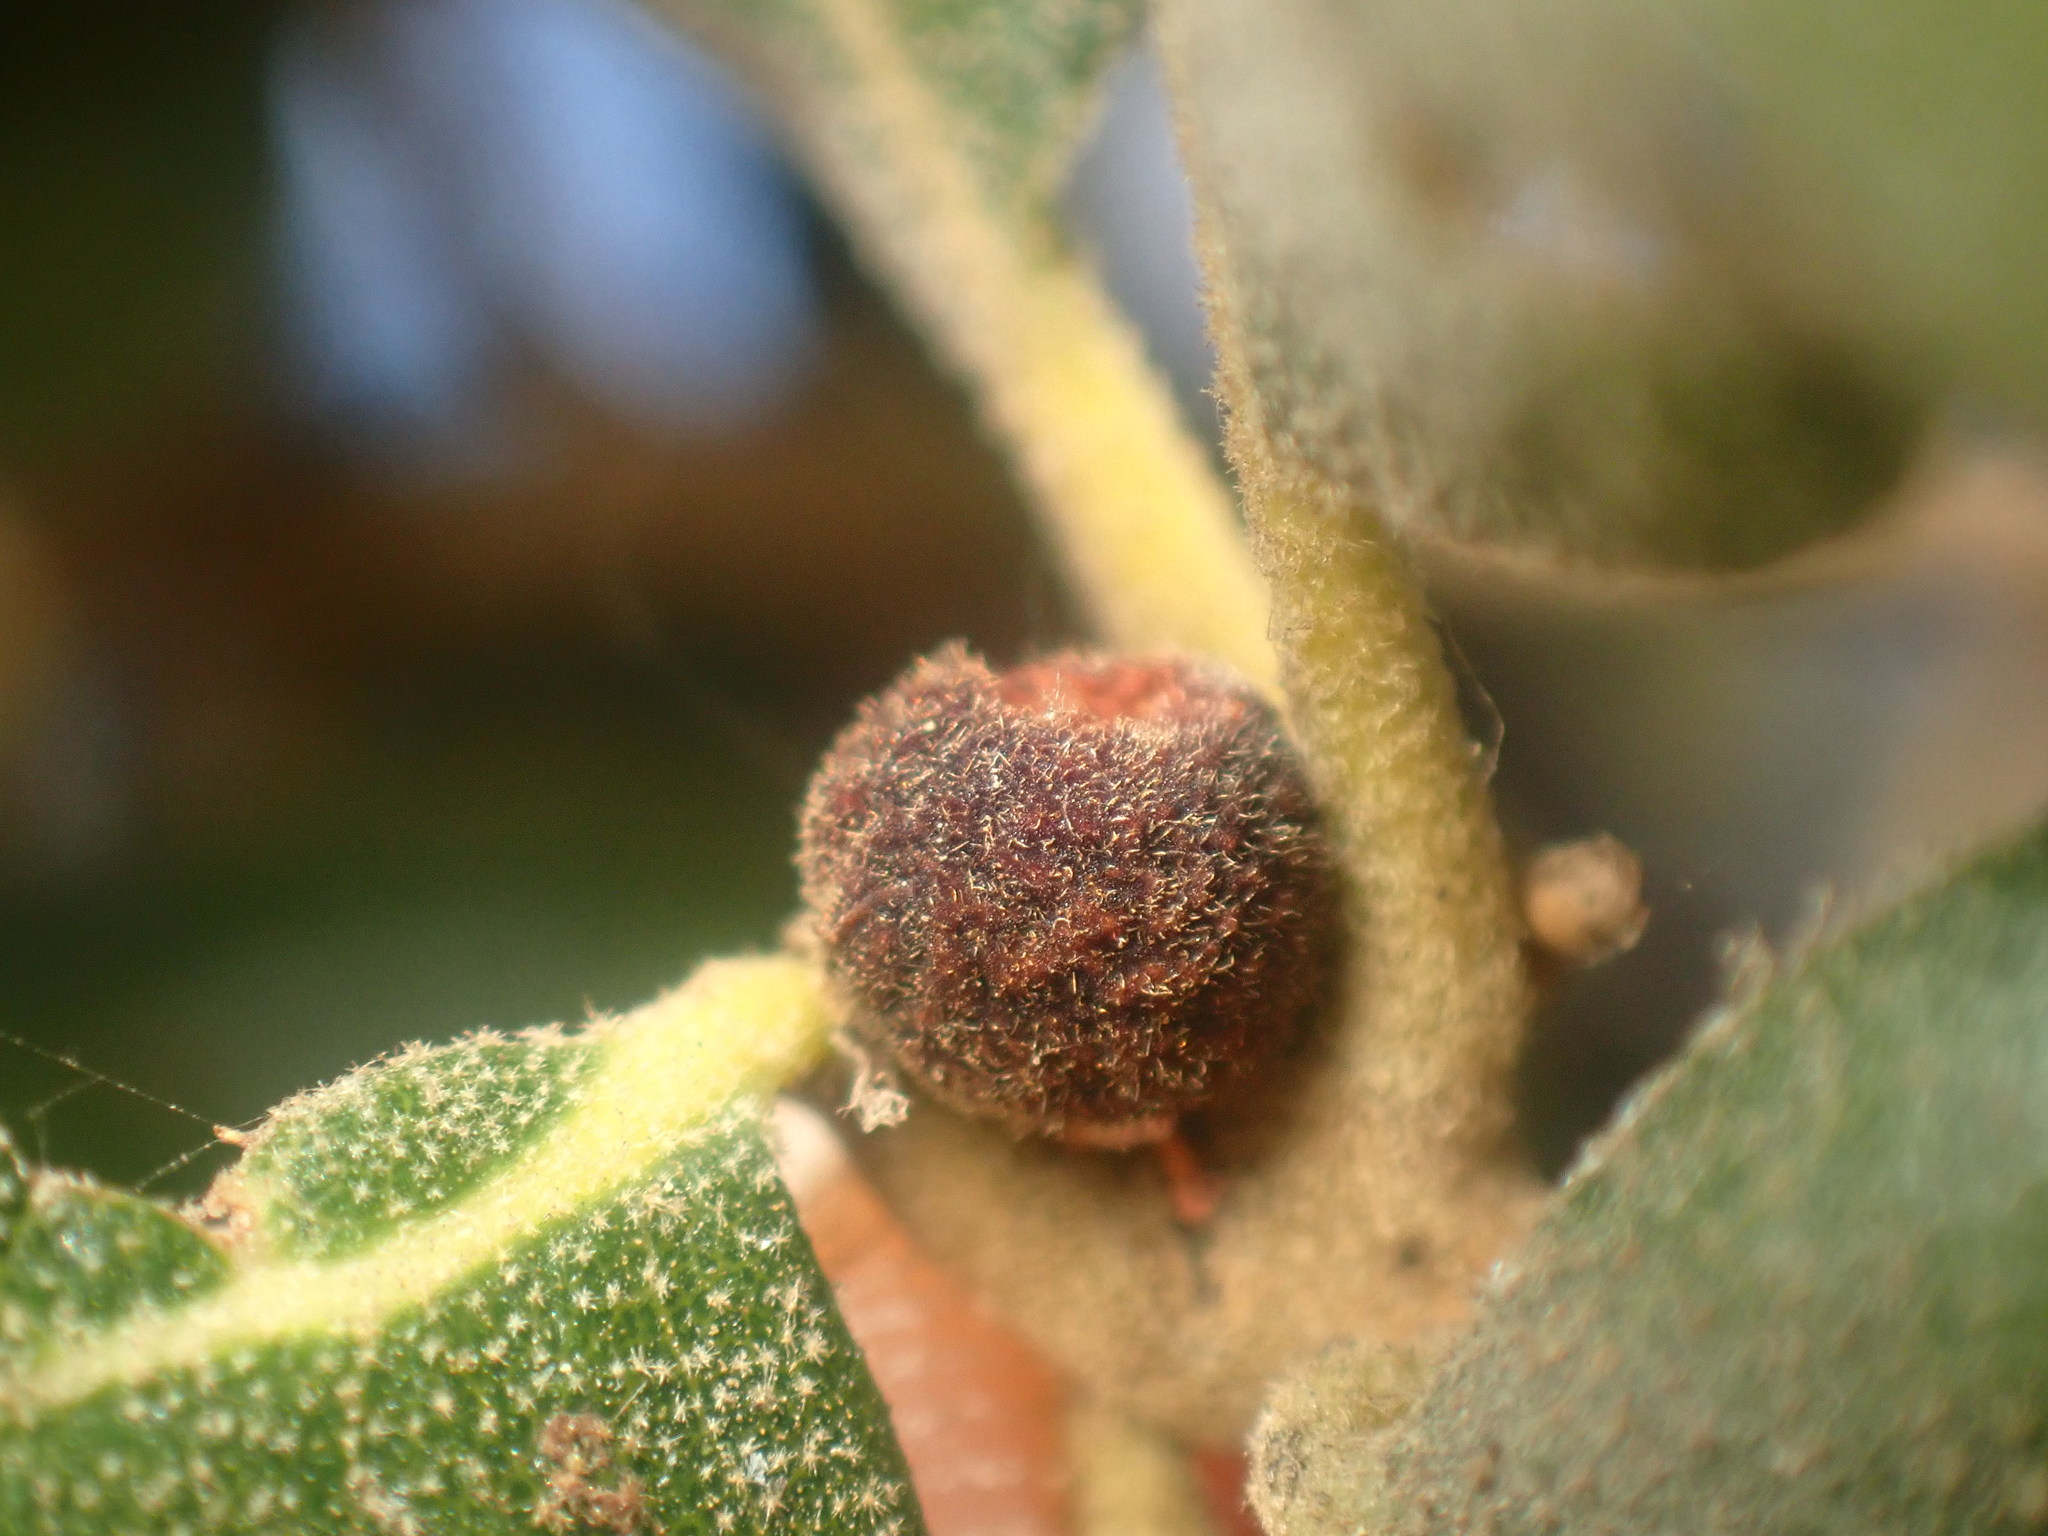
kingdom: Animalia
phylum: Arthropoda
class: Insecta
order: Hymenoptera
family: Cynipidae
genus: Callirhytis
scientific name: Callirhytis
